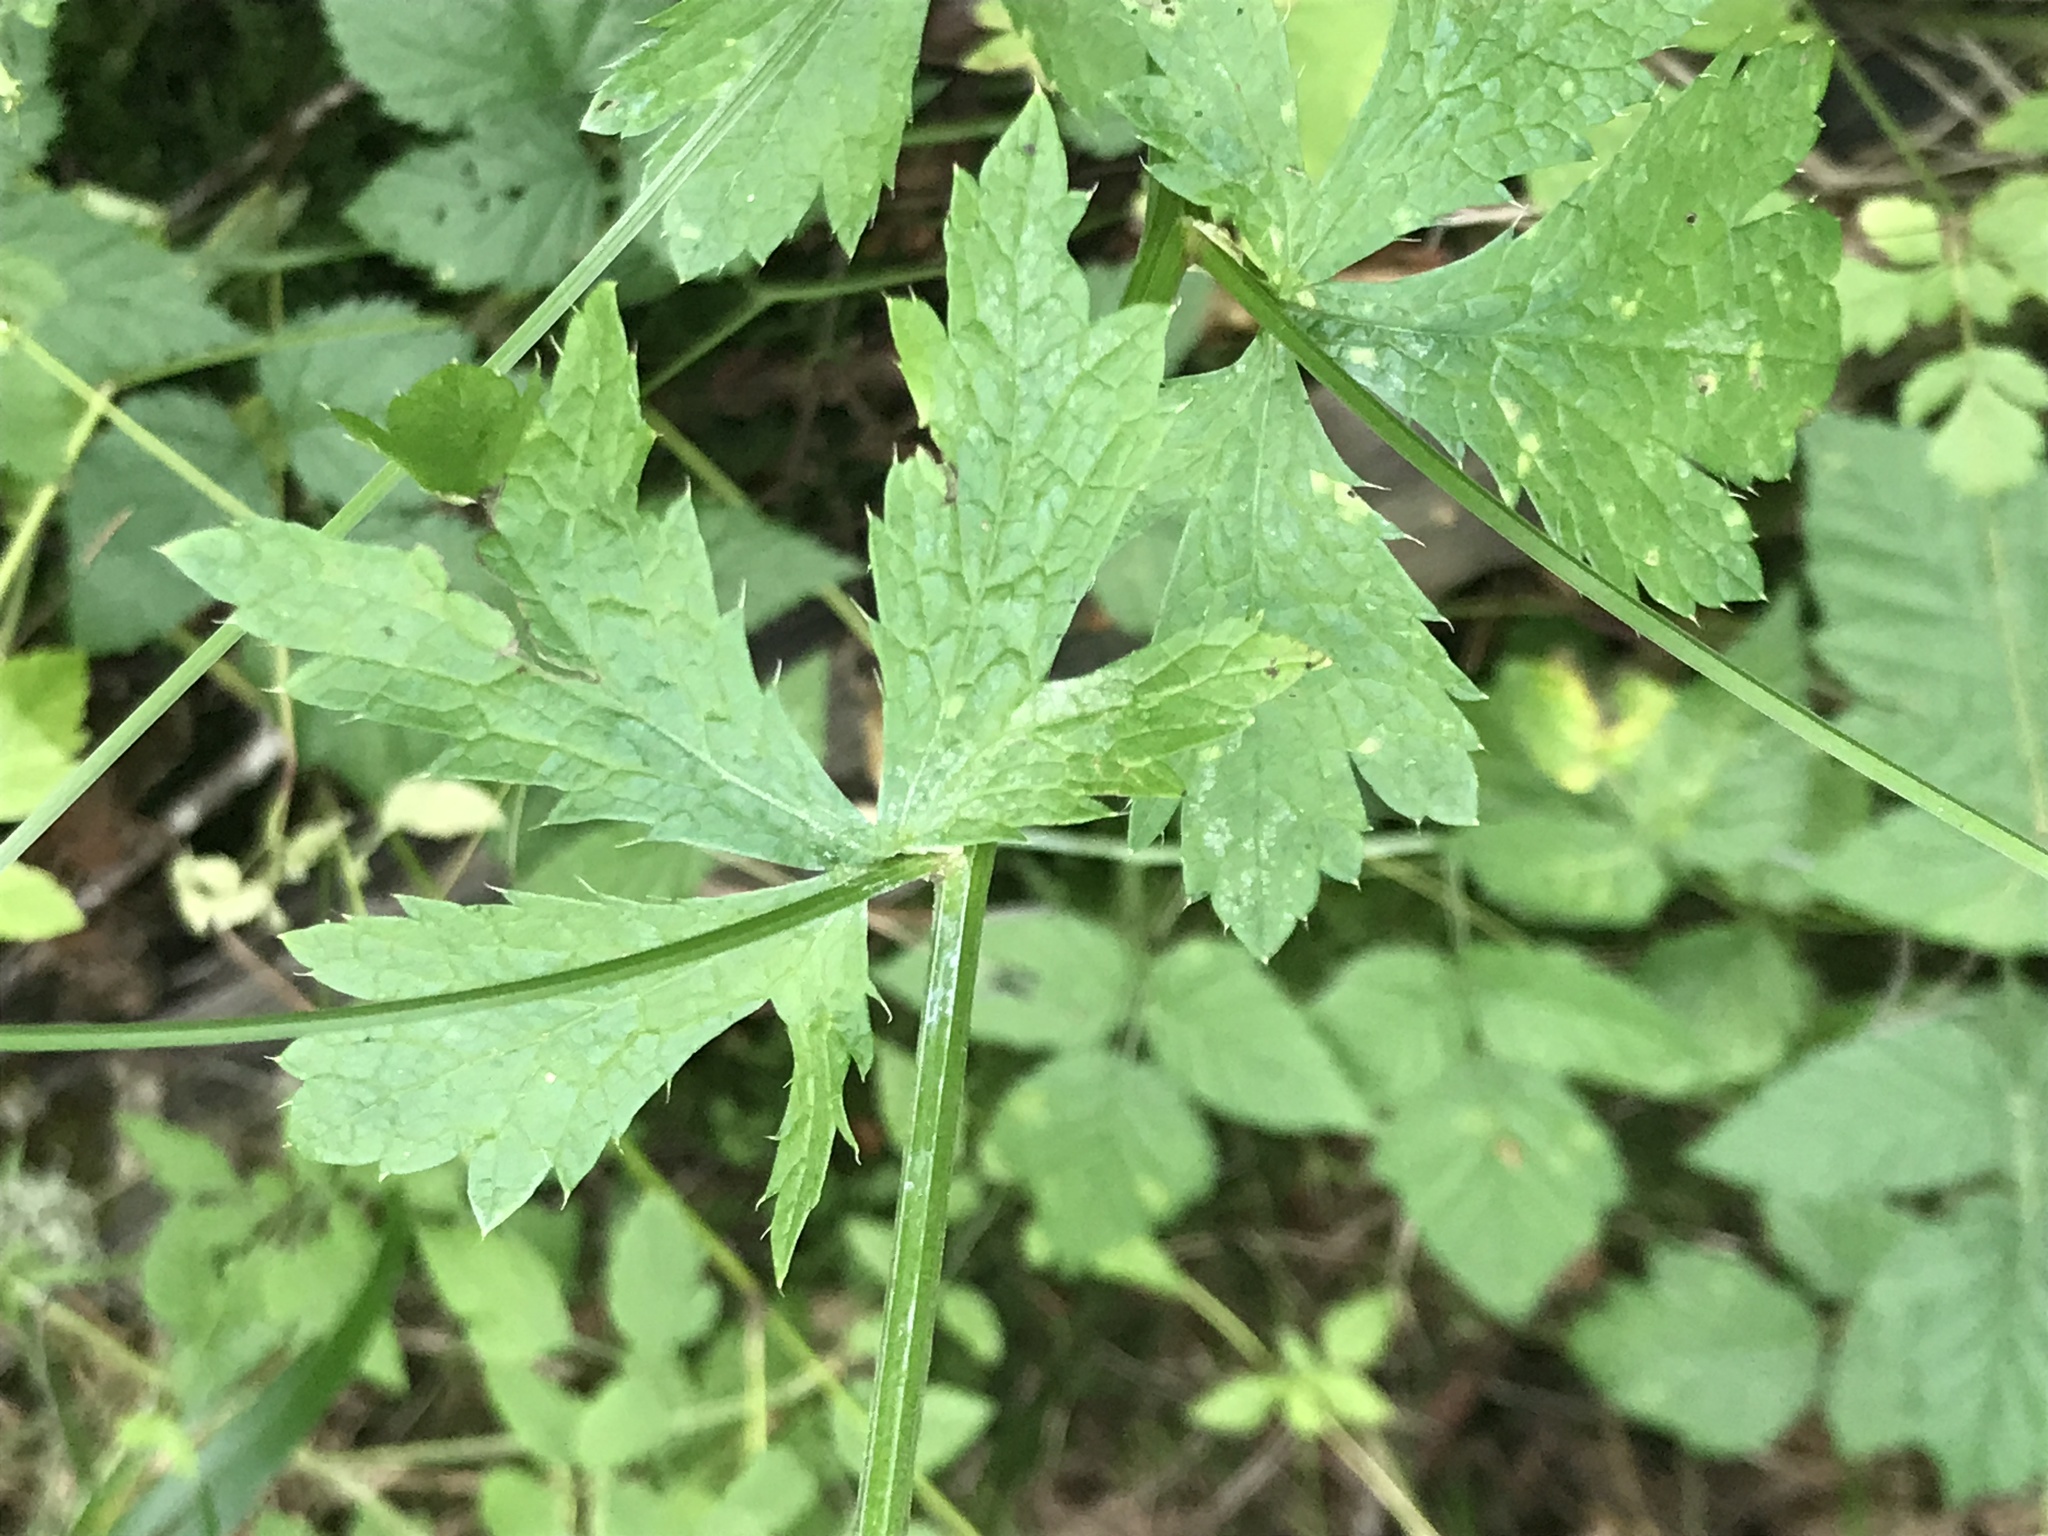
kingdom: Plantae
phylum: Tracheophyta
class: Magnoliopsida
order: Apiales
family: Apiaceae
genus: Sanicula
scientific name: Sanicula crassicaulis
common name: Western snakeroot
